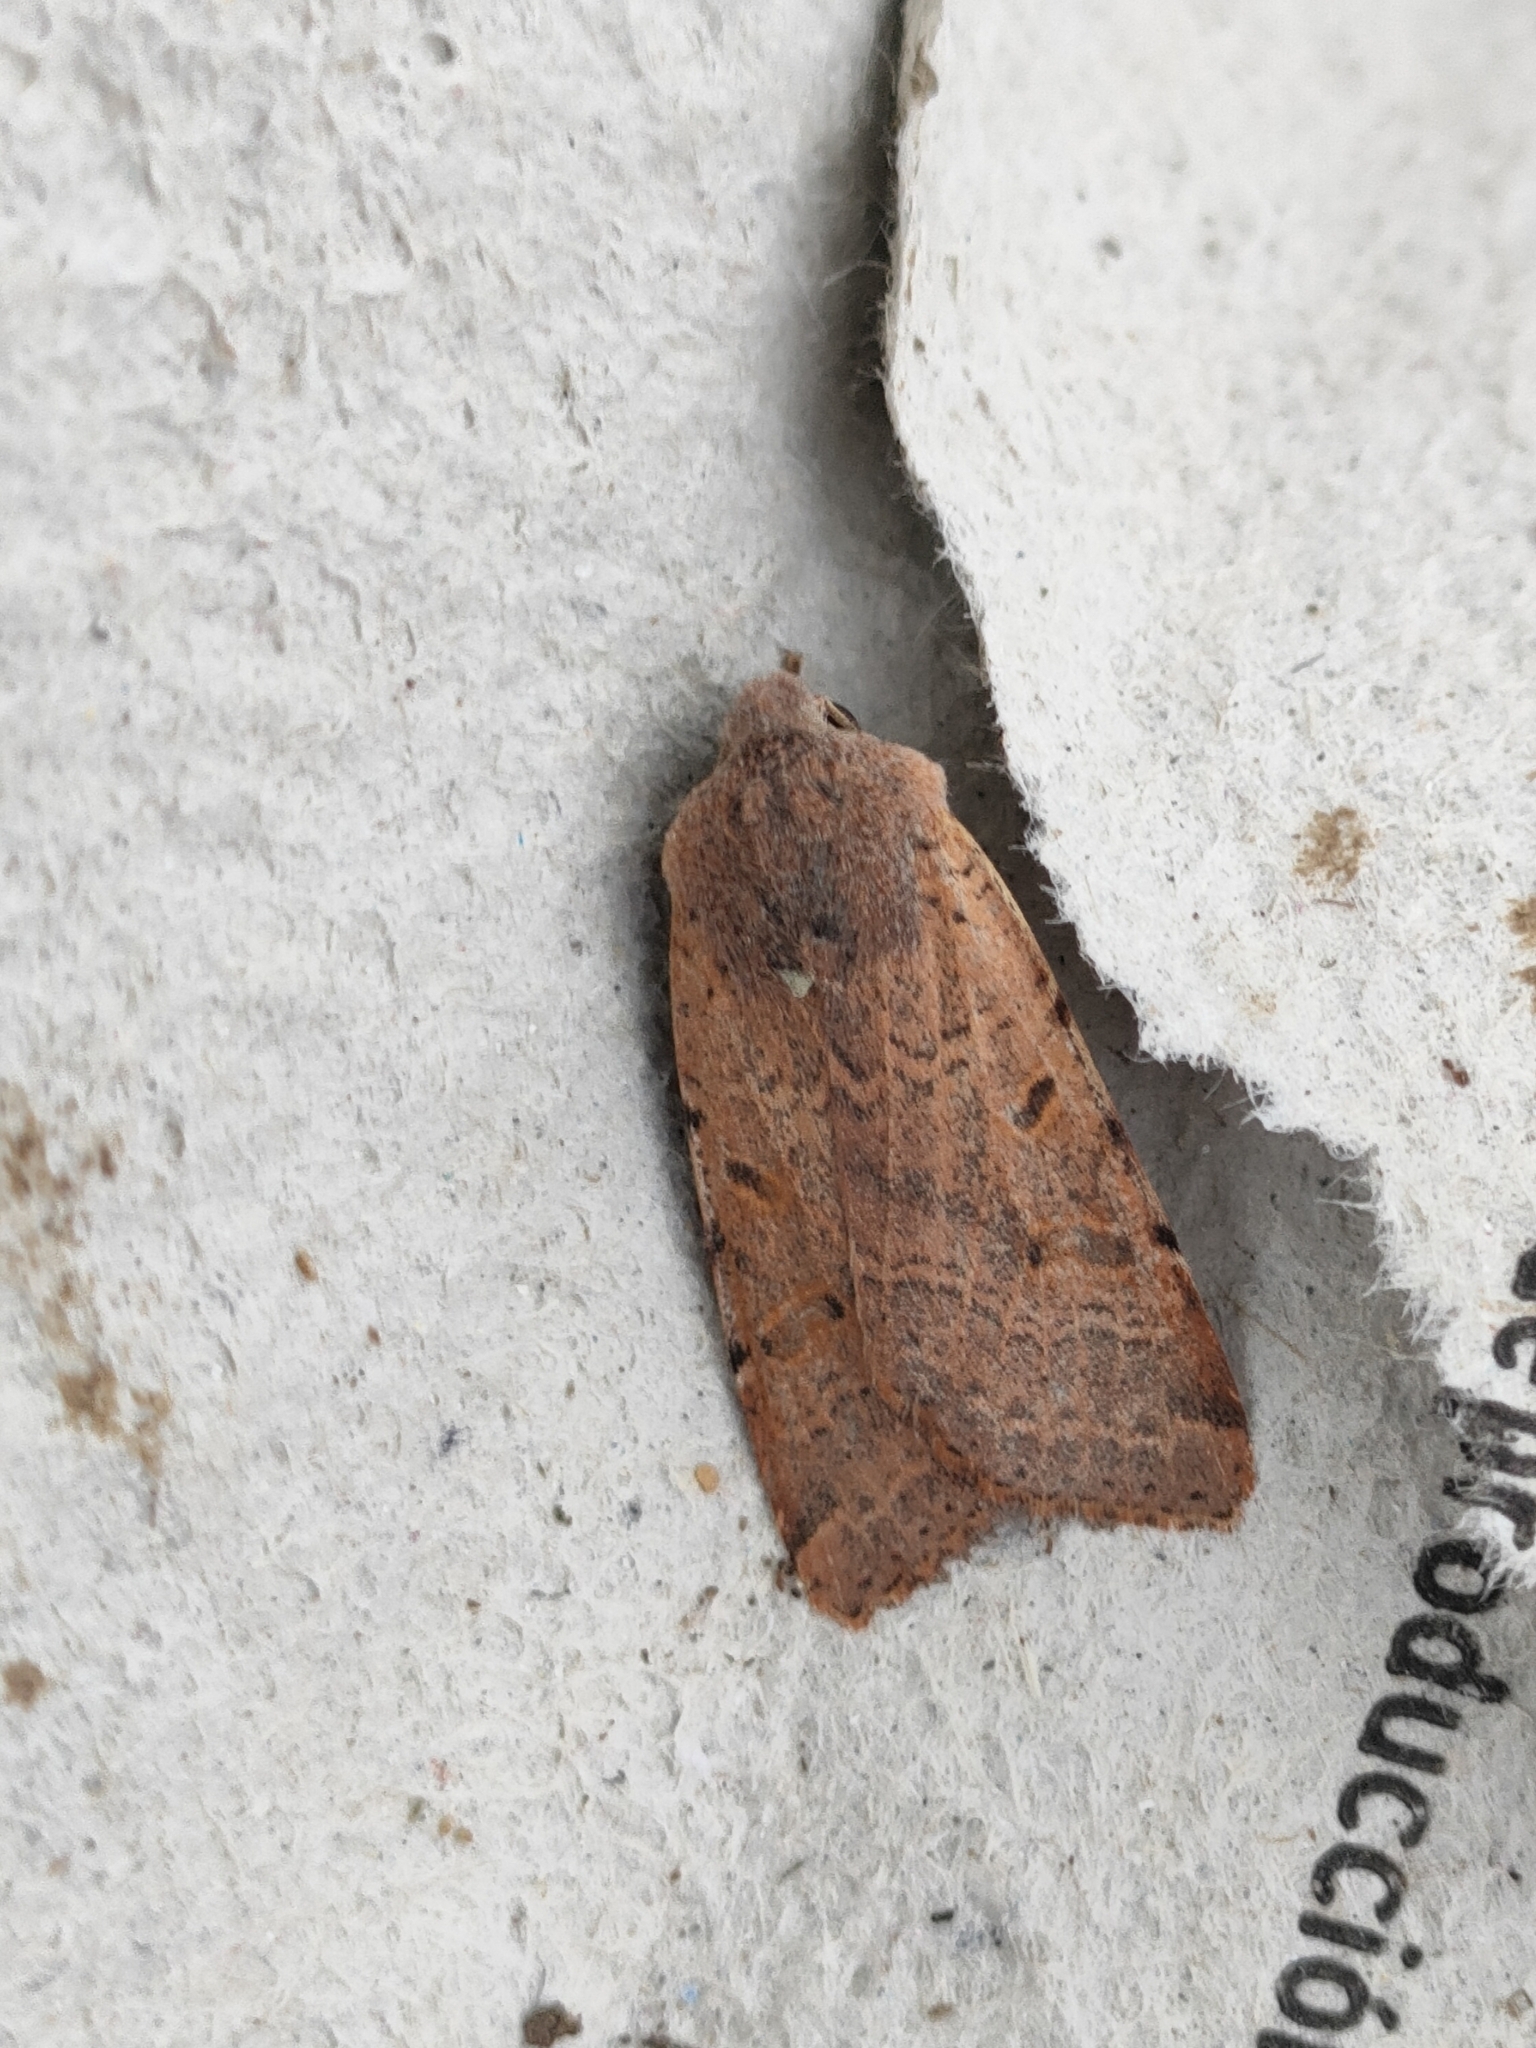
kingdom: Animalia
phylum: Arthropoda
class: Insecta
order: Lepidoptera
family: Noctuidae
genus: Agrochola
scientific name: Agrochola lychnidis
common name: Beaded chestnut
